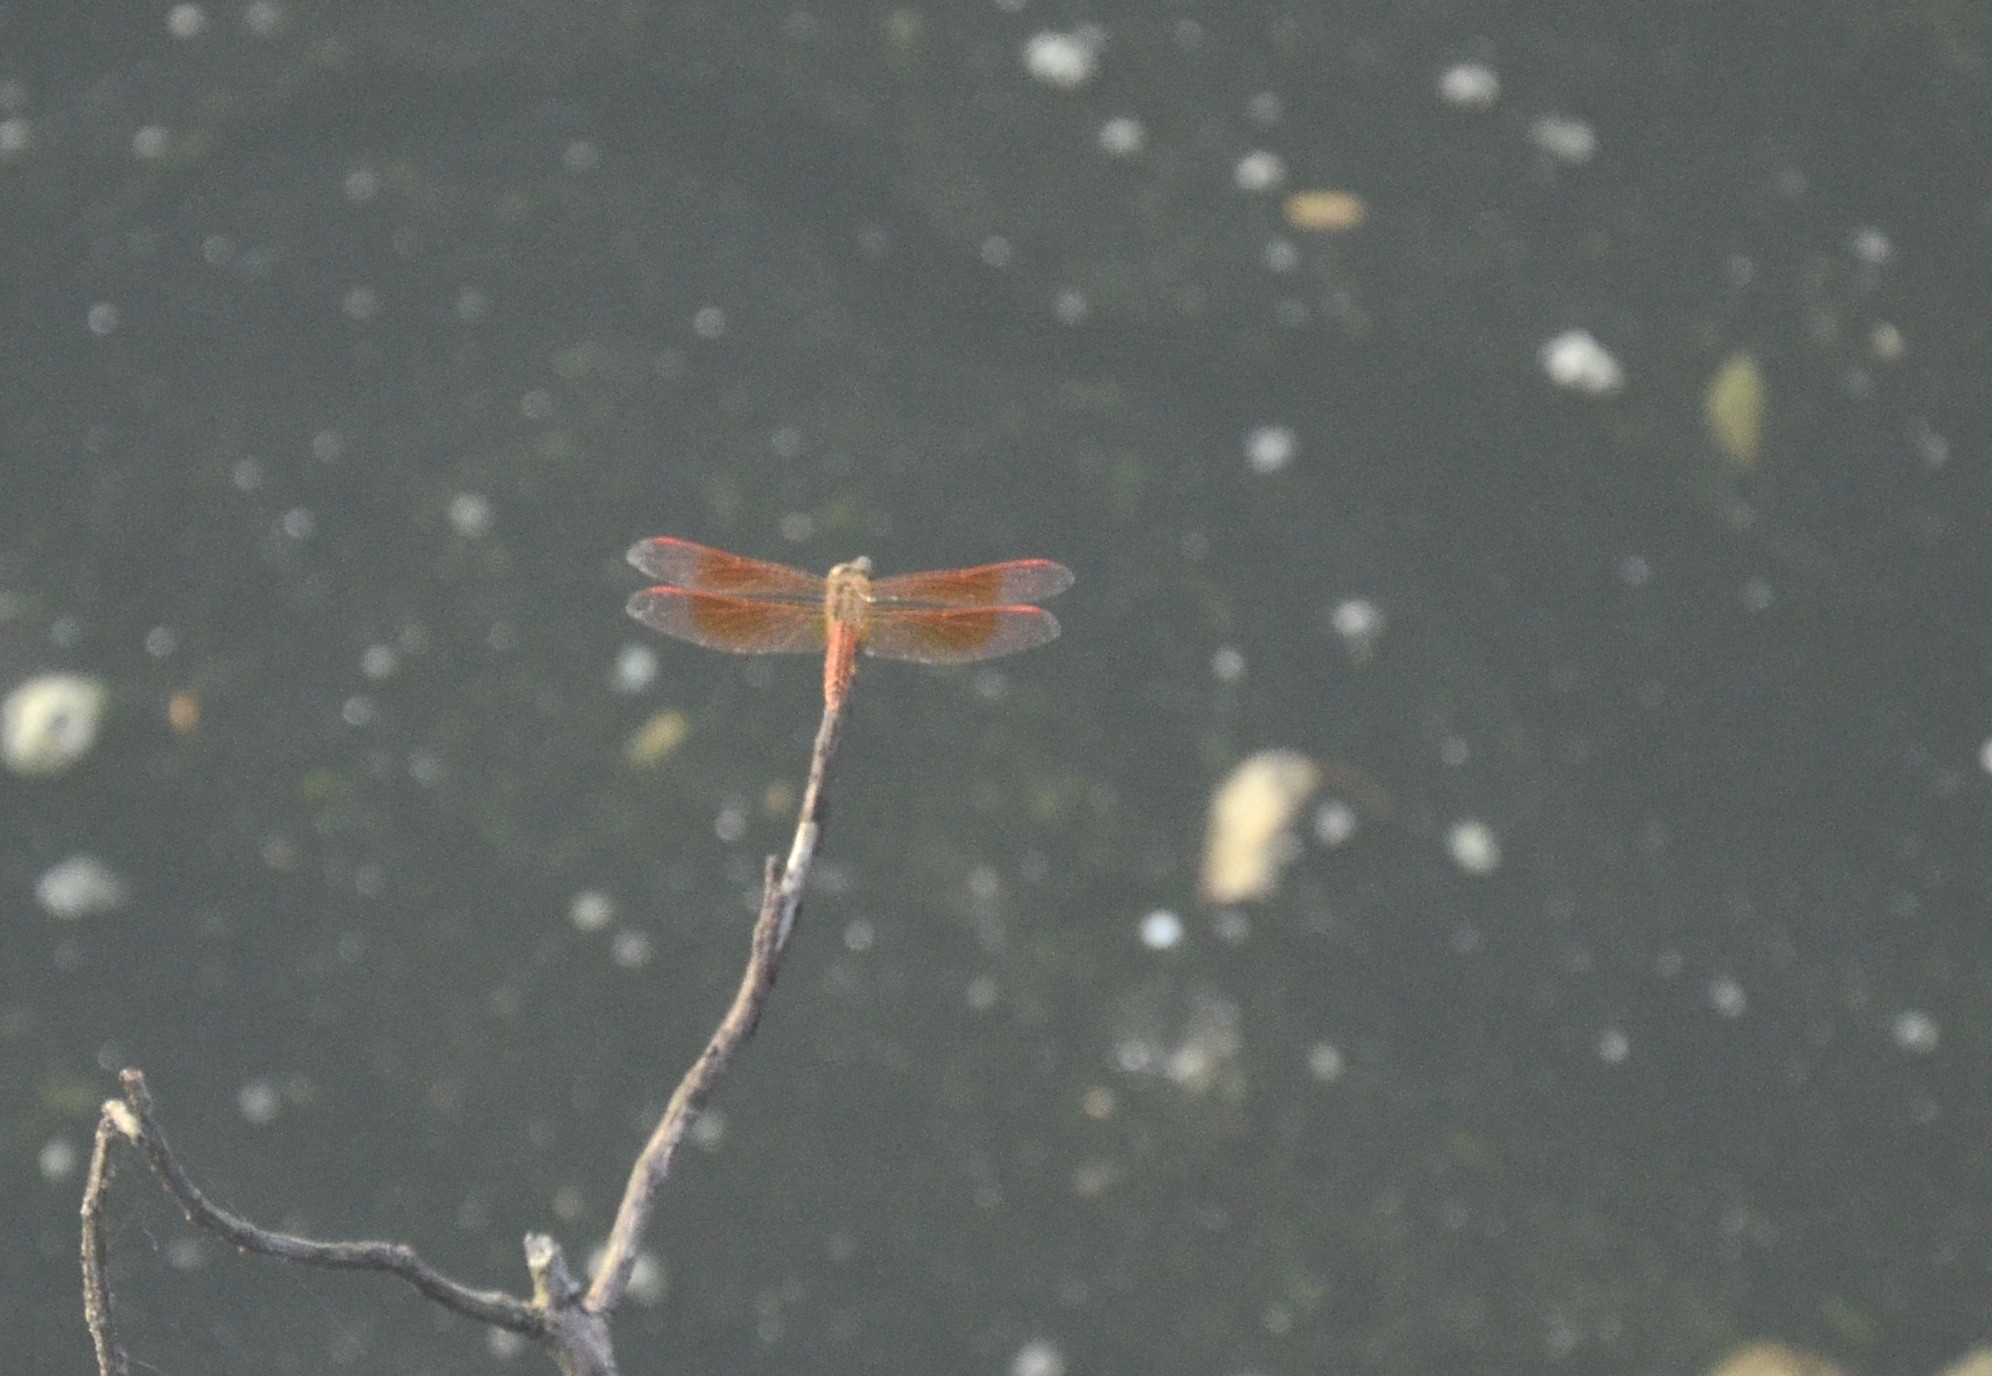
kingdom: Animalia
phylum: Arthropoda
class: Insecta
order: Odonata
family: Libellulidae
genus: Brachythemis
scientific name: Brachythemis contaminata
